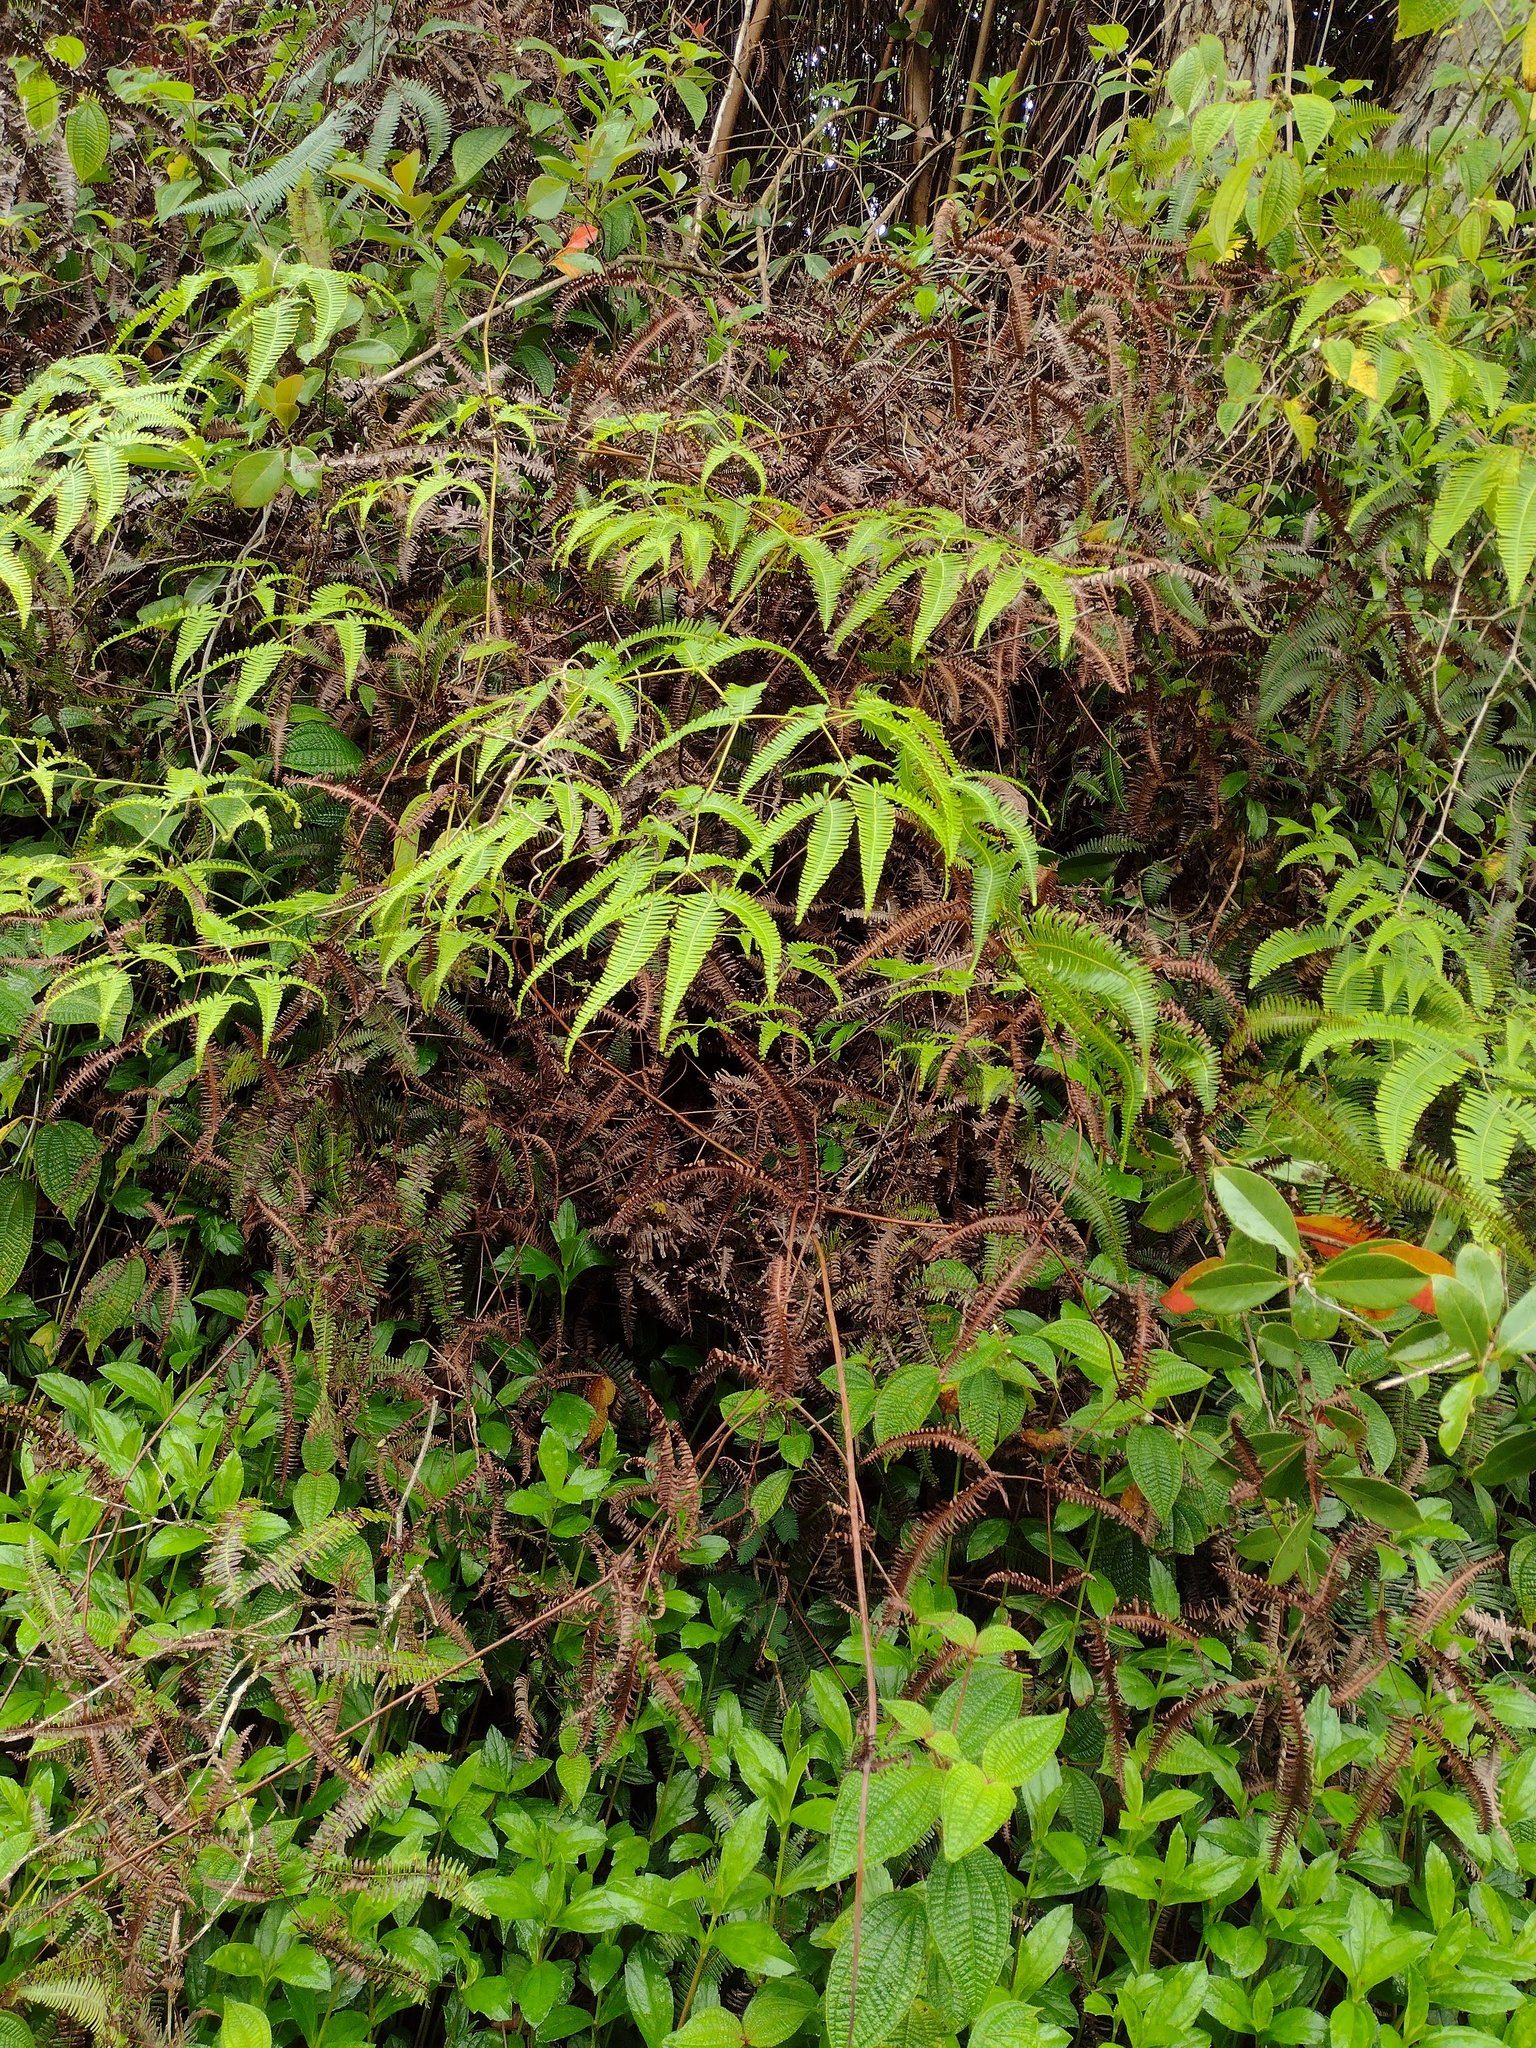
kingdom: Plantae
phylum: Tracheophyta
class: Polypodiopsida
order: Gleicheniales
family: Gleicheniaceae
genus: Dicranopteris
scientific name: Dicranopteris linearis
